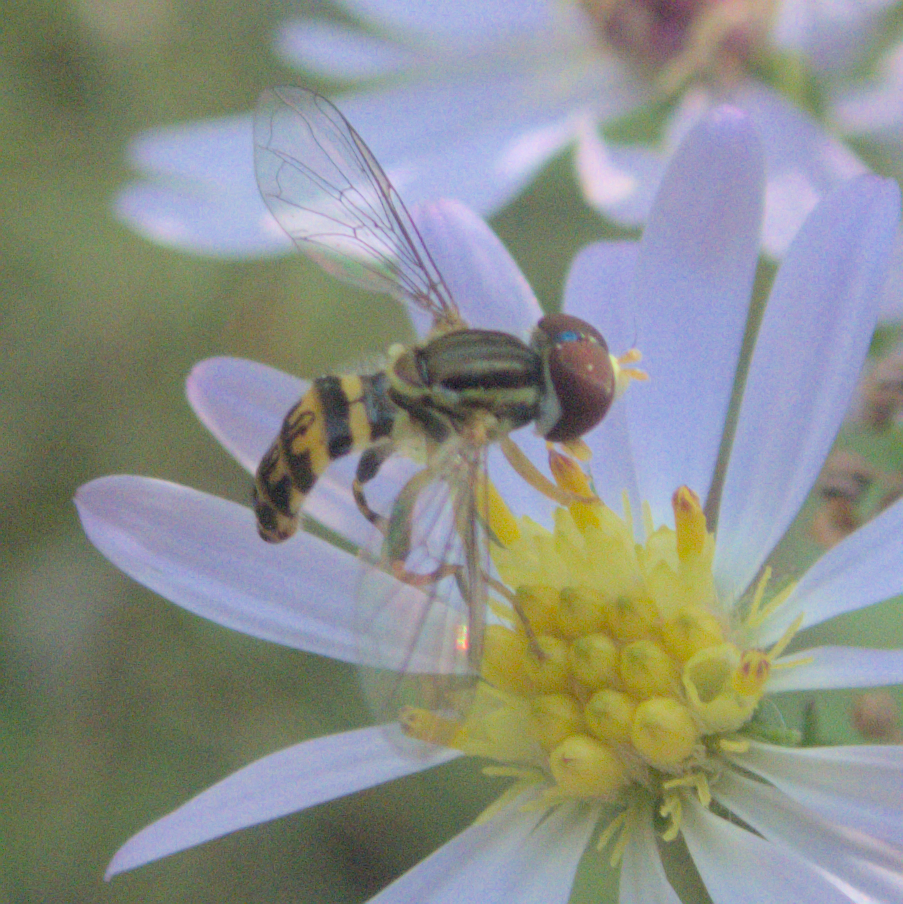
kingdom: Animalia
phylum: Arthropoda
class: Insecta
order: Diptera
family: Syrphidae
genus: Toxomerus
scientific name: Toxomerus geminatus
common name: Eastern calligrapher
